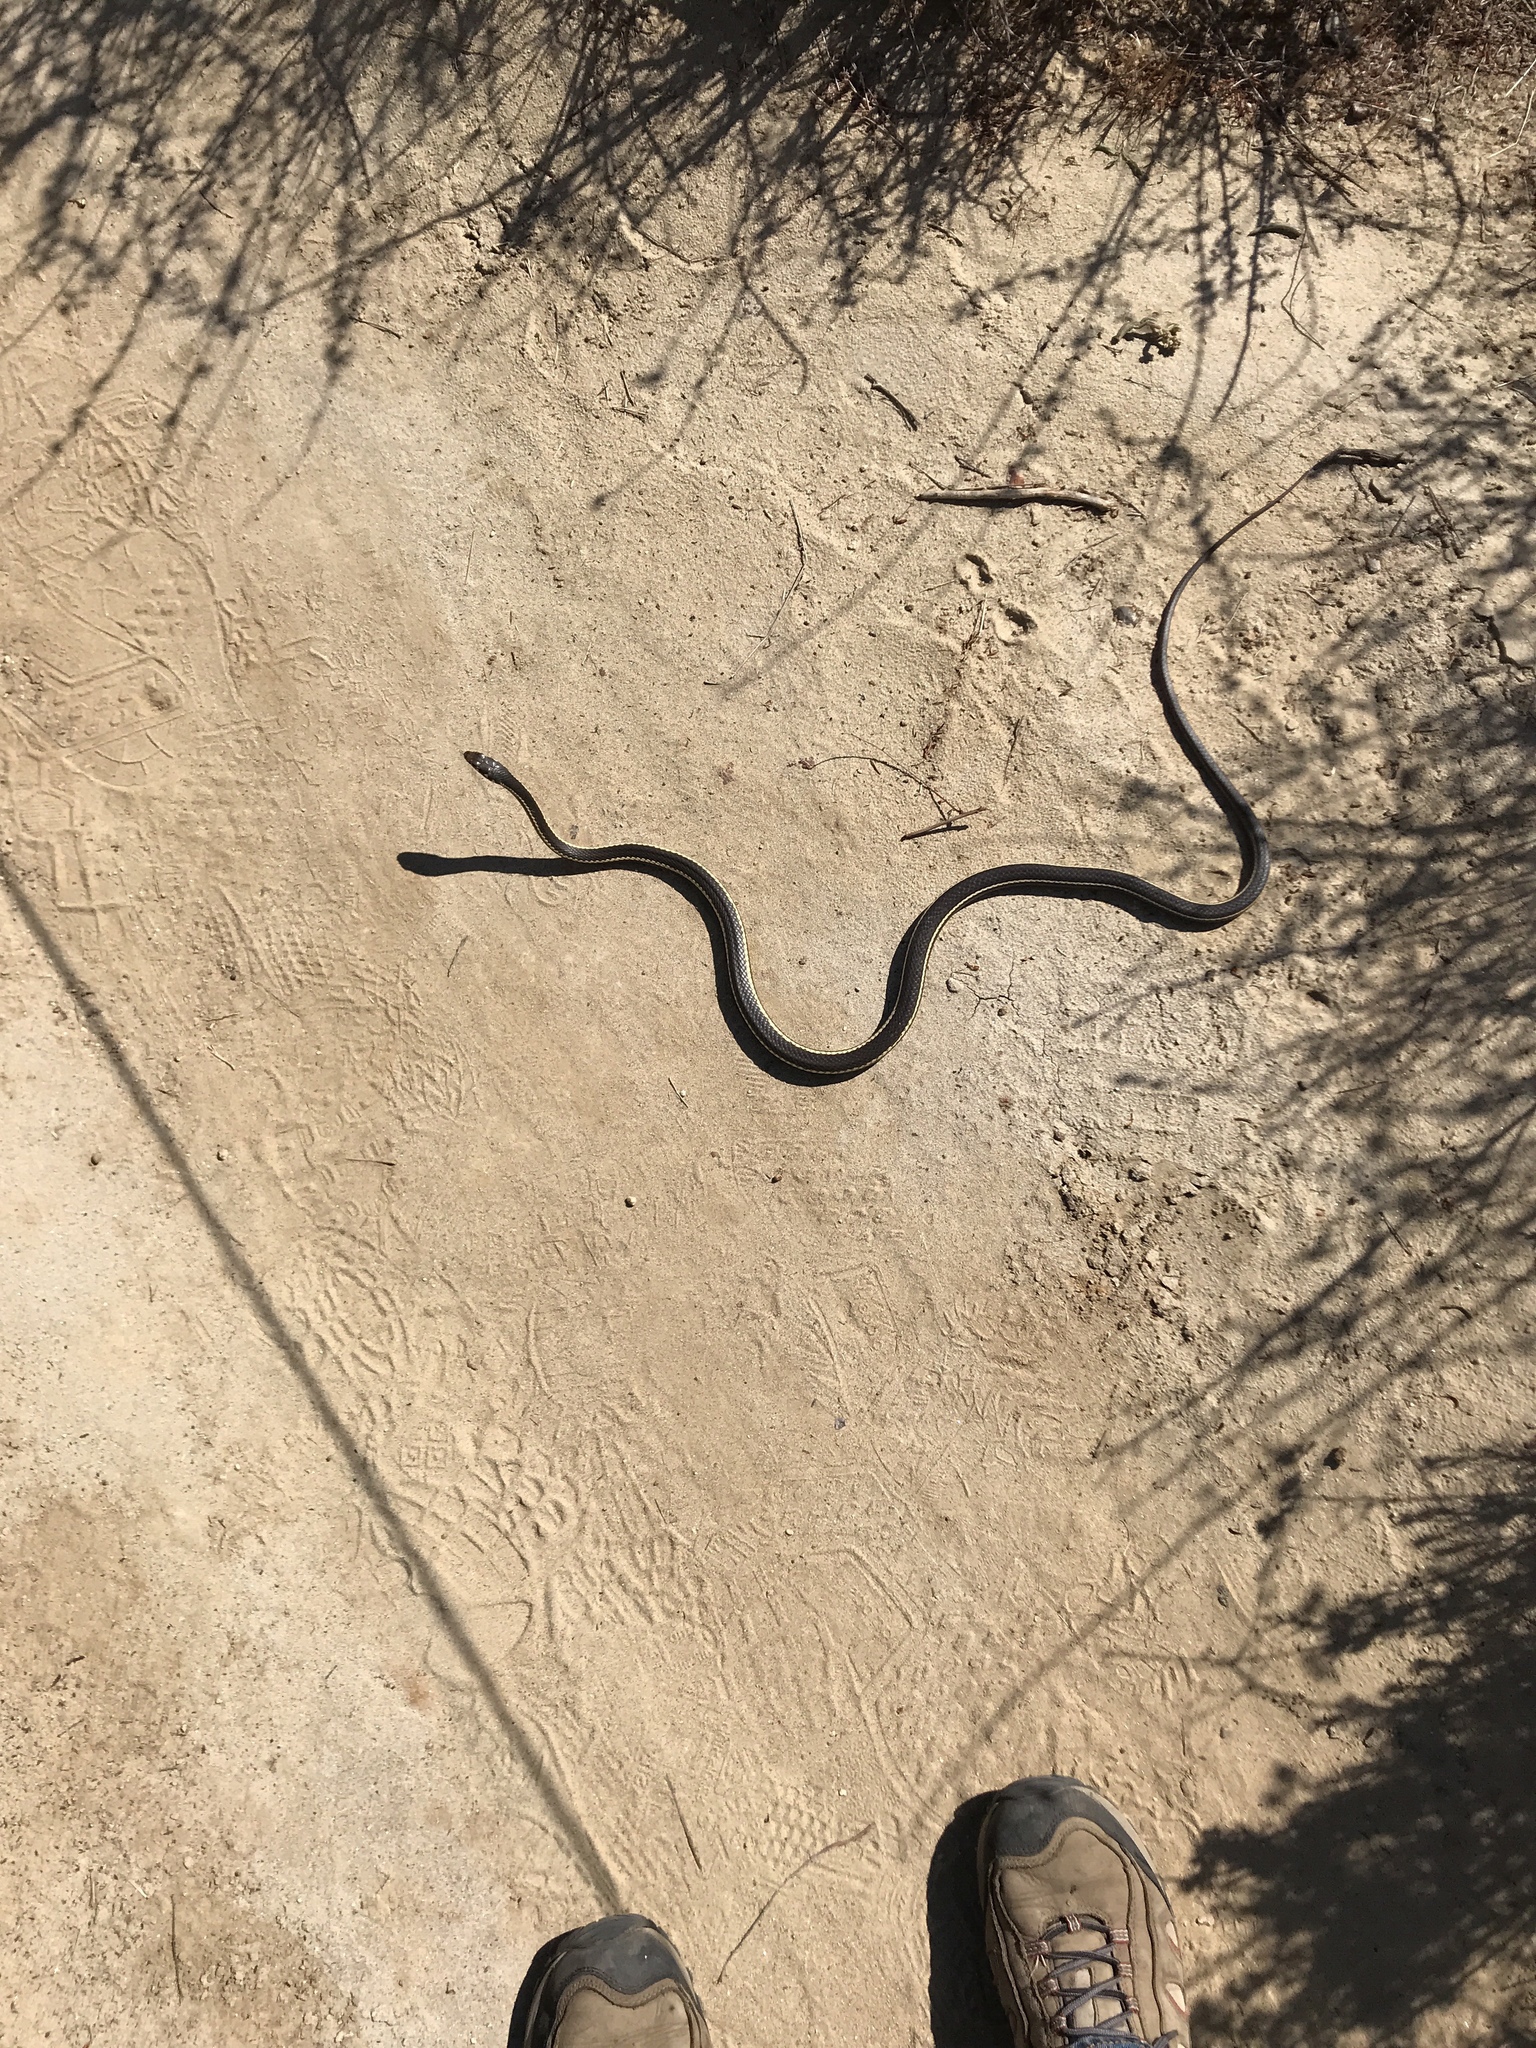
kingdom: Animalia
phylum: Chordata
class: Squamata
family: Colubridae
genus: Masticophis
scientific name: Masticophis lateralis
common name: Striped racer
